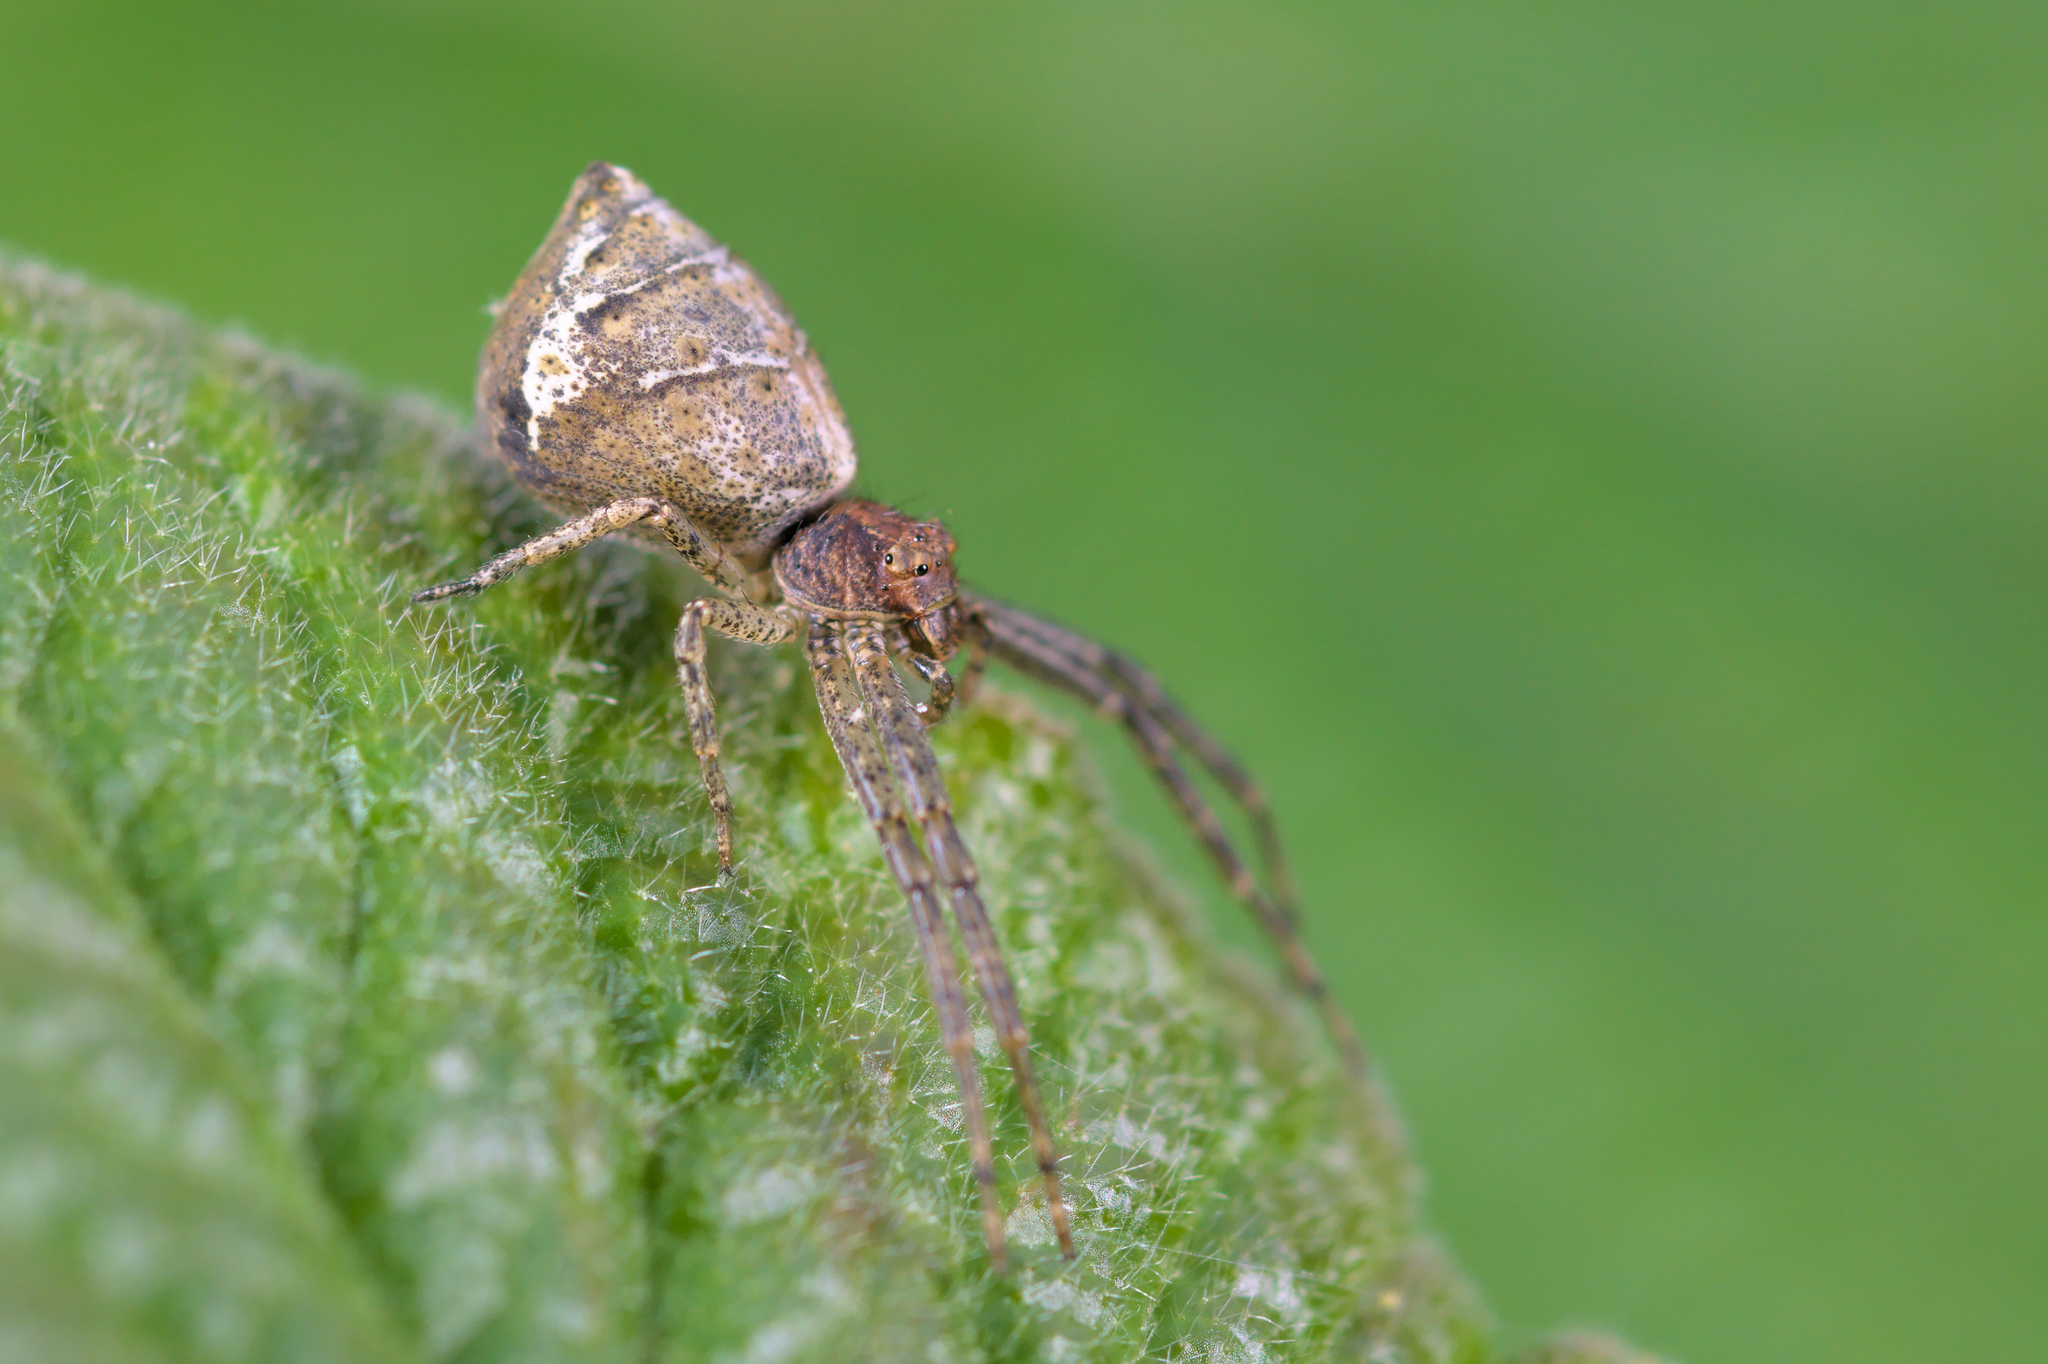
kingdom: Animalia
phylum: Arthropoda
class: Arachnida
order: Araneae
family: Thomisidae
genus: Tmarus
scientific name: Tmarus piger
